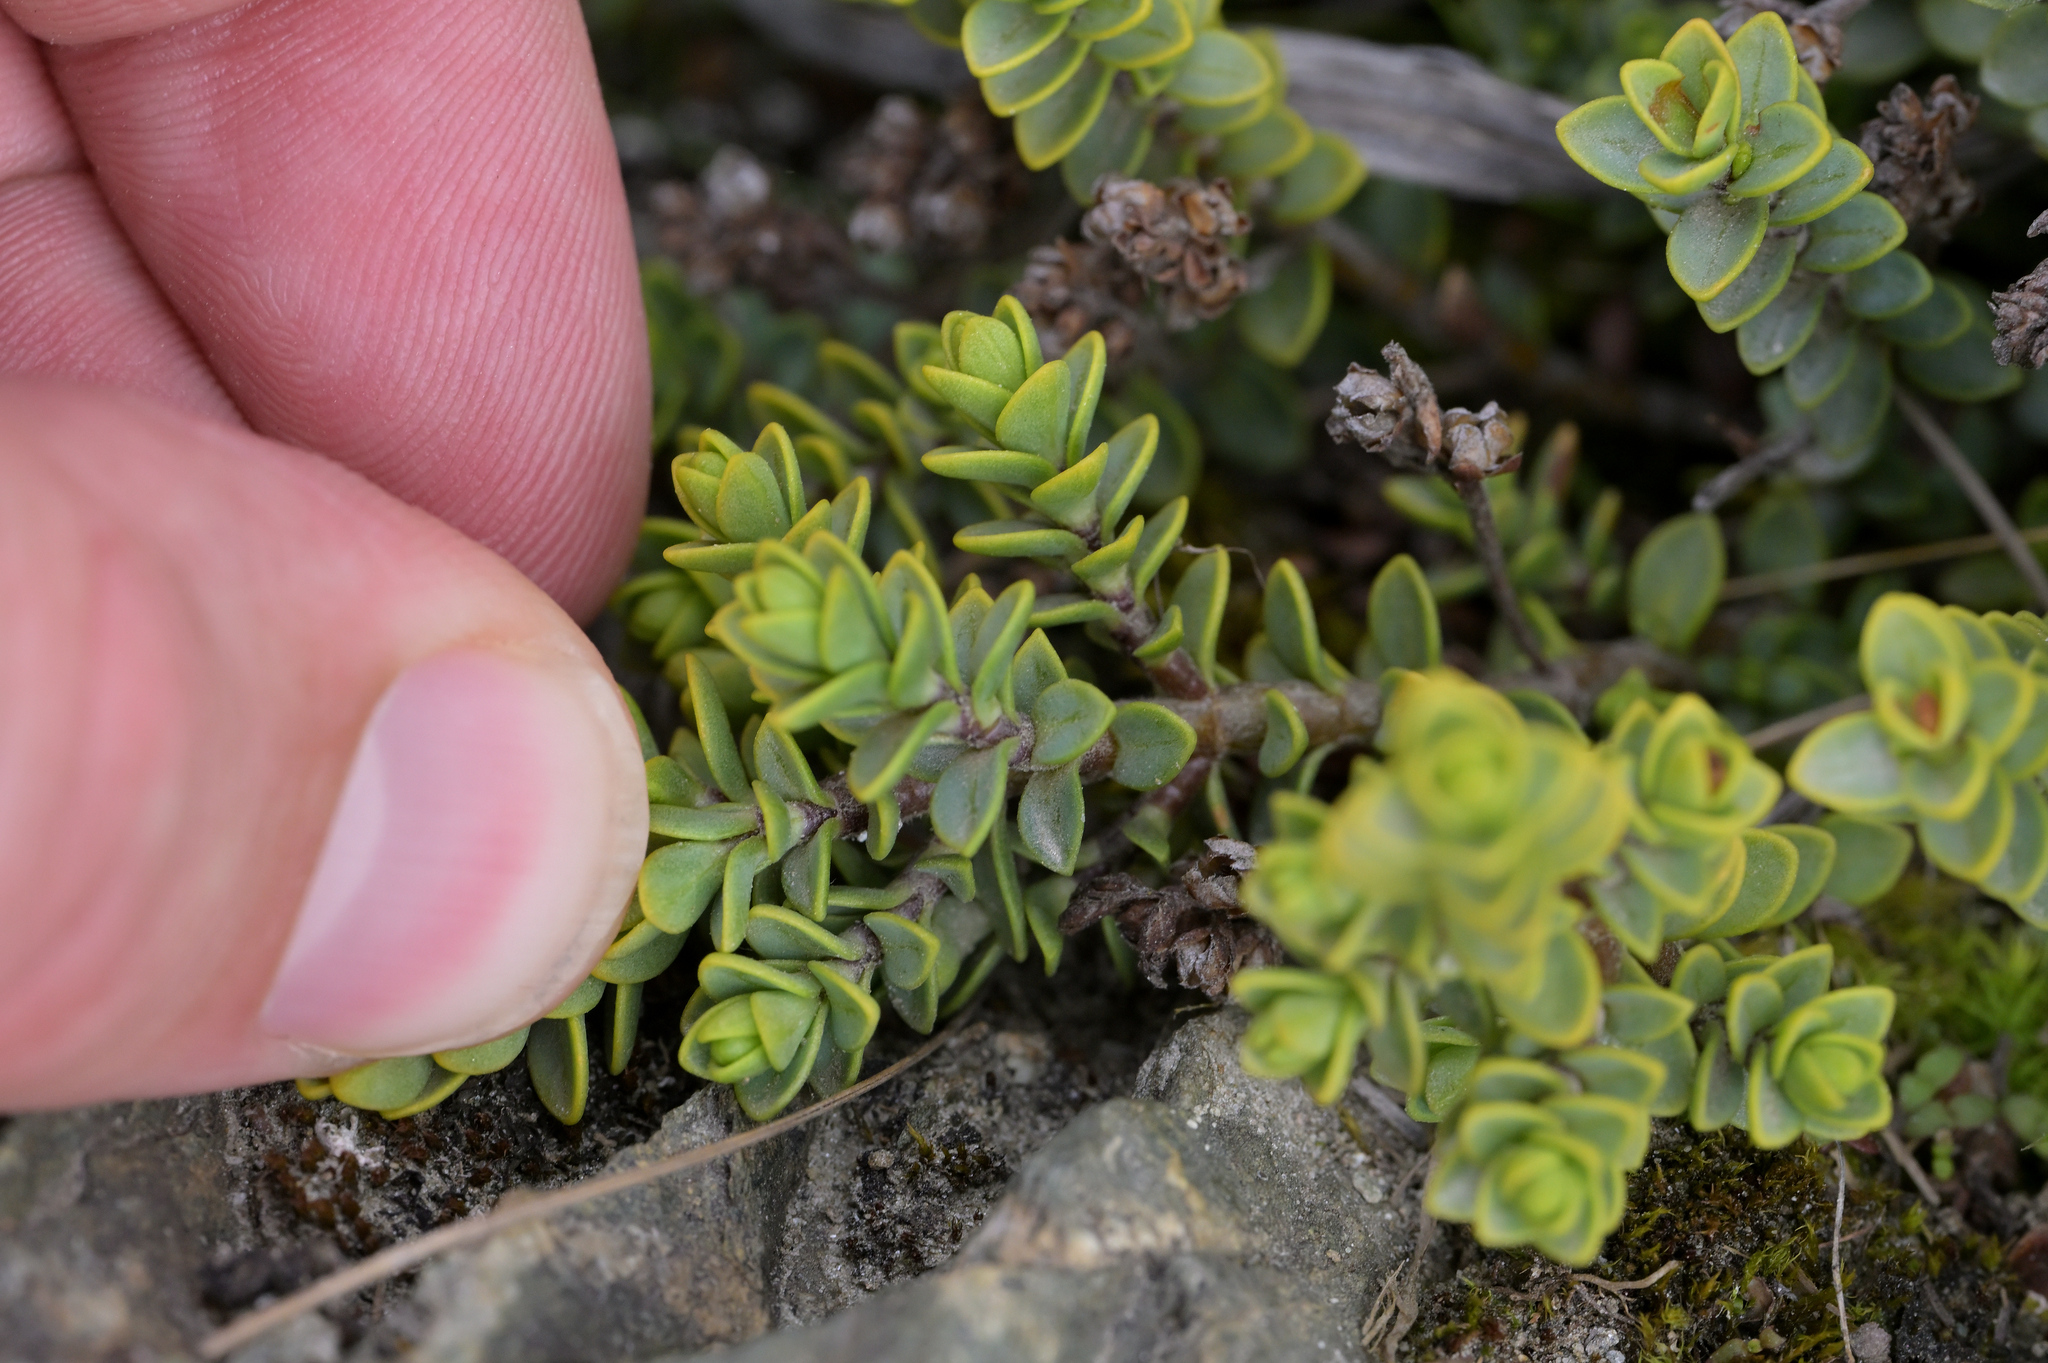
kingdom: Plantae
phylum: Tracheophyta
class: Magnoliopsida
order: Lamiales
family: Plantaginaceae
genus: Veronica
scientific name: Veronica buchananii
